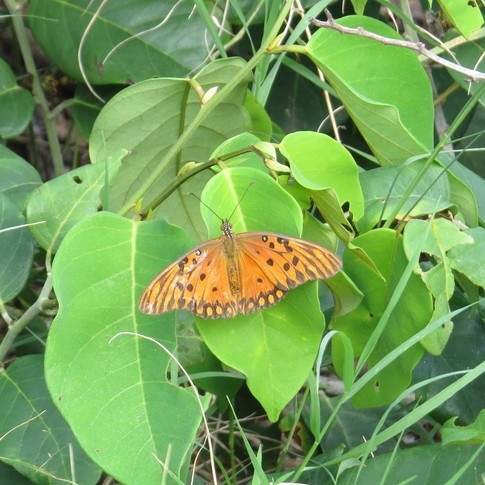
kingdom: Animalia
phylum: Arthropoda
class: Insecta
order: Lepidoptera
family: Nymphalidae
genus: Dione
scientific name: Dione vanillae
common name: Gulf fritillary
